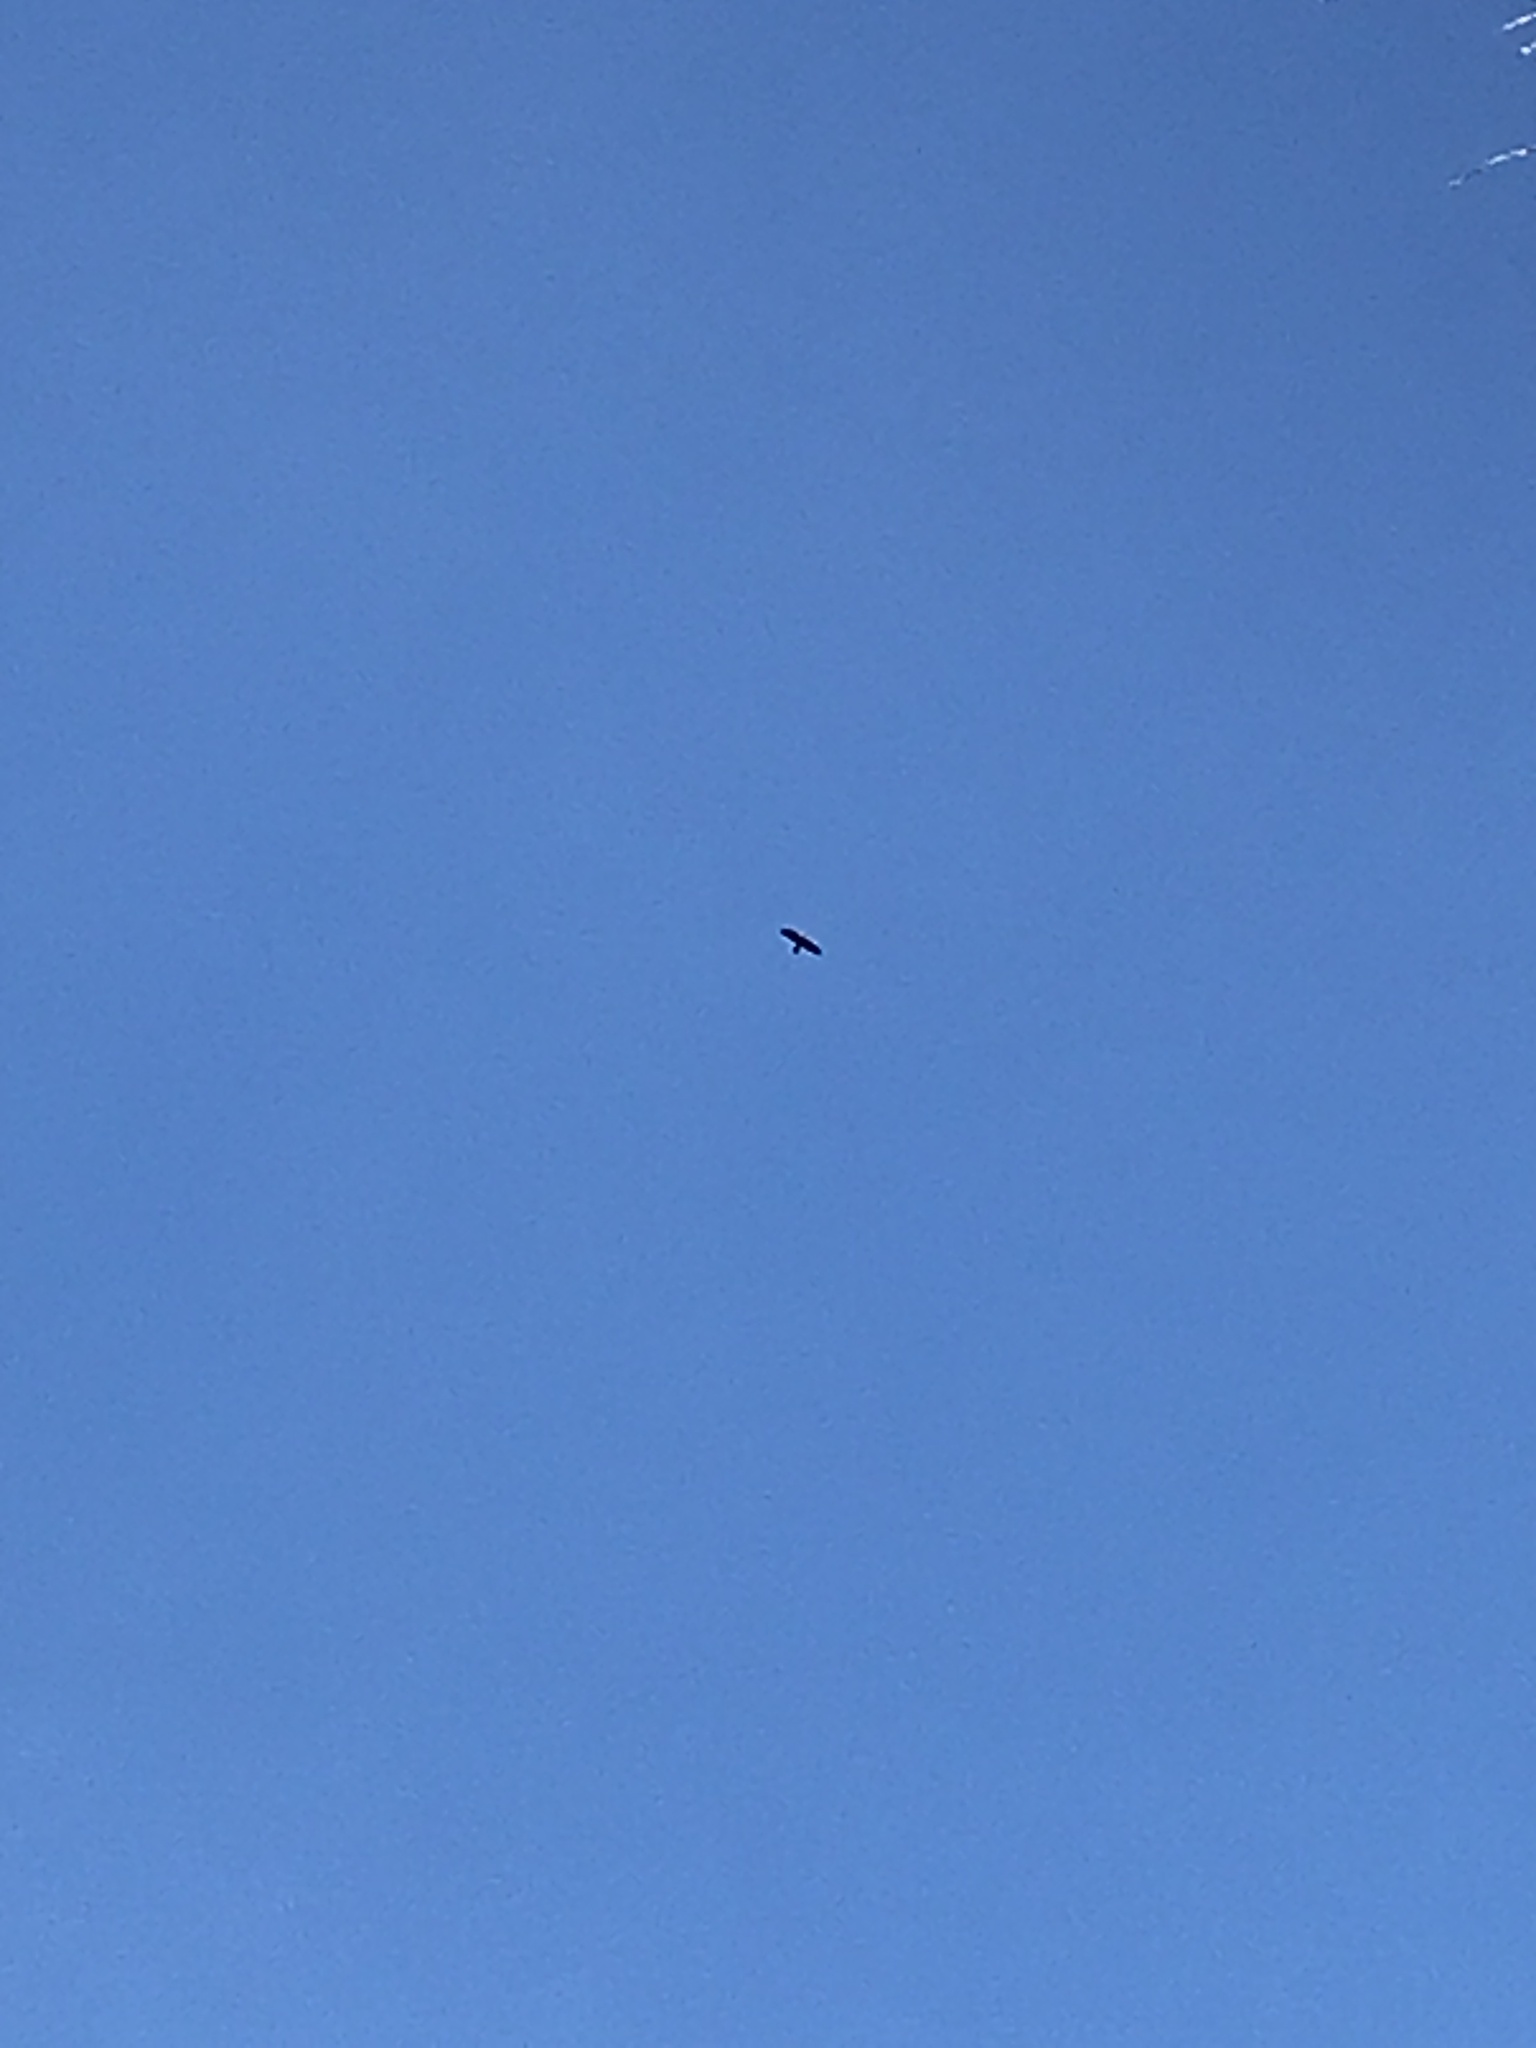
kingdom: Animalia
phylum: Chordata
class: Aves
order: Passeriformes
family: Corvidae
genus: Corvus
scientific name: Corvus corax
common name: Common raven
